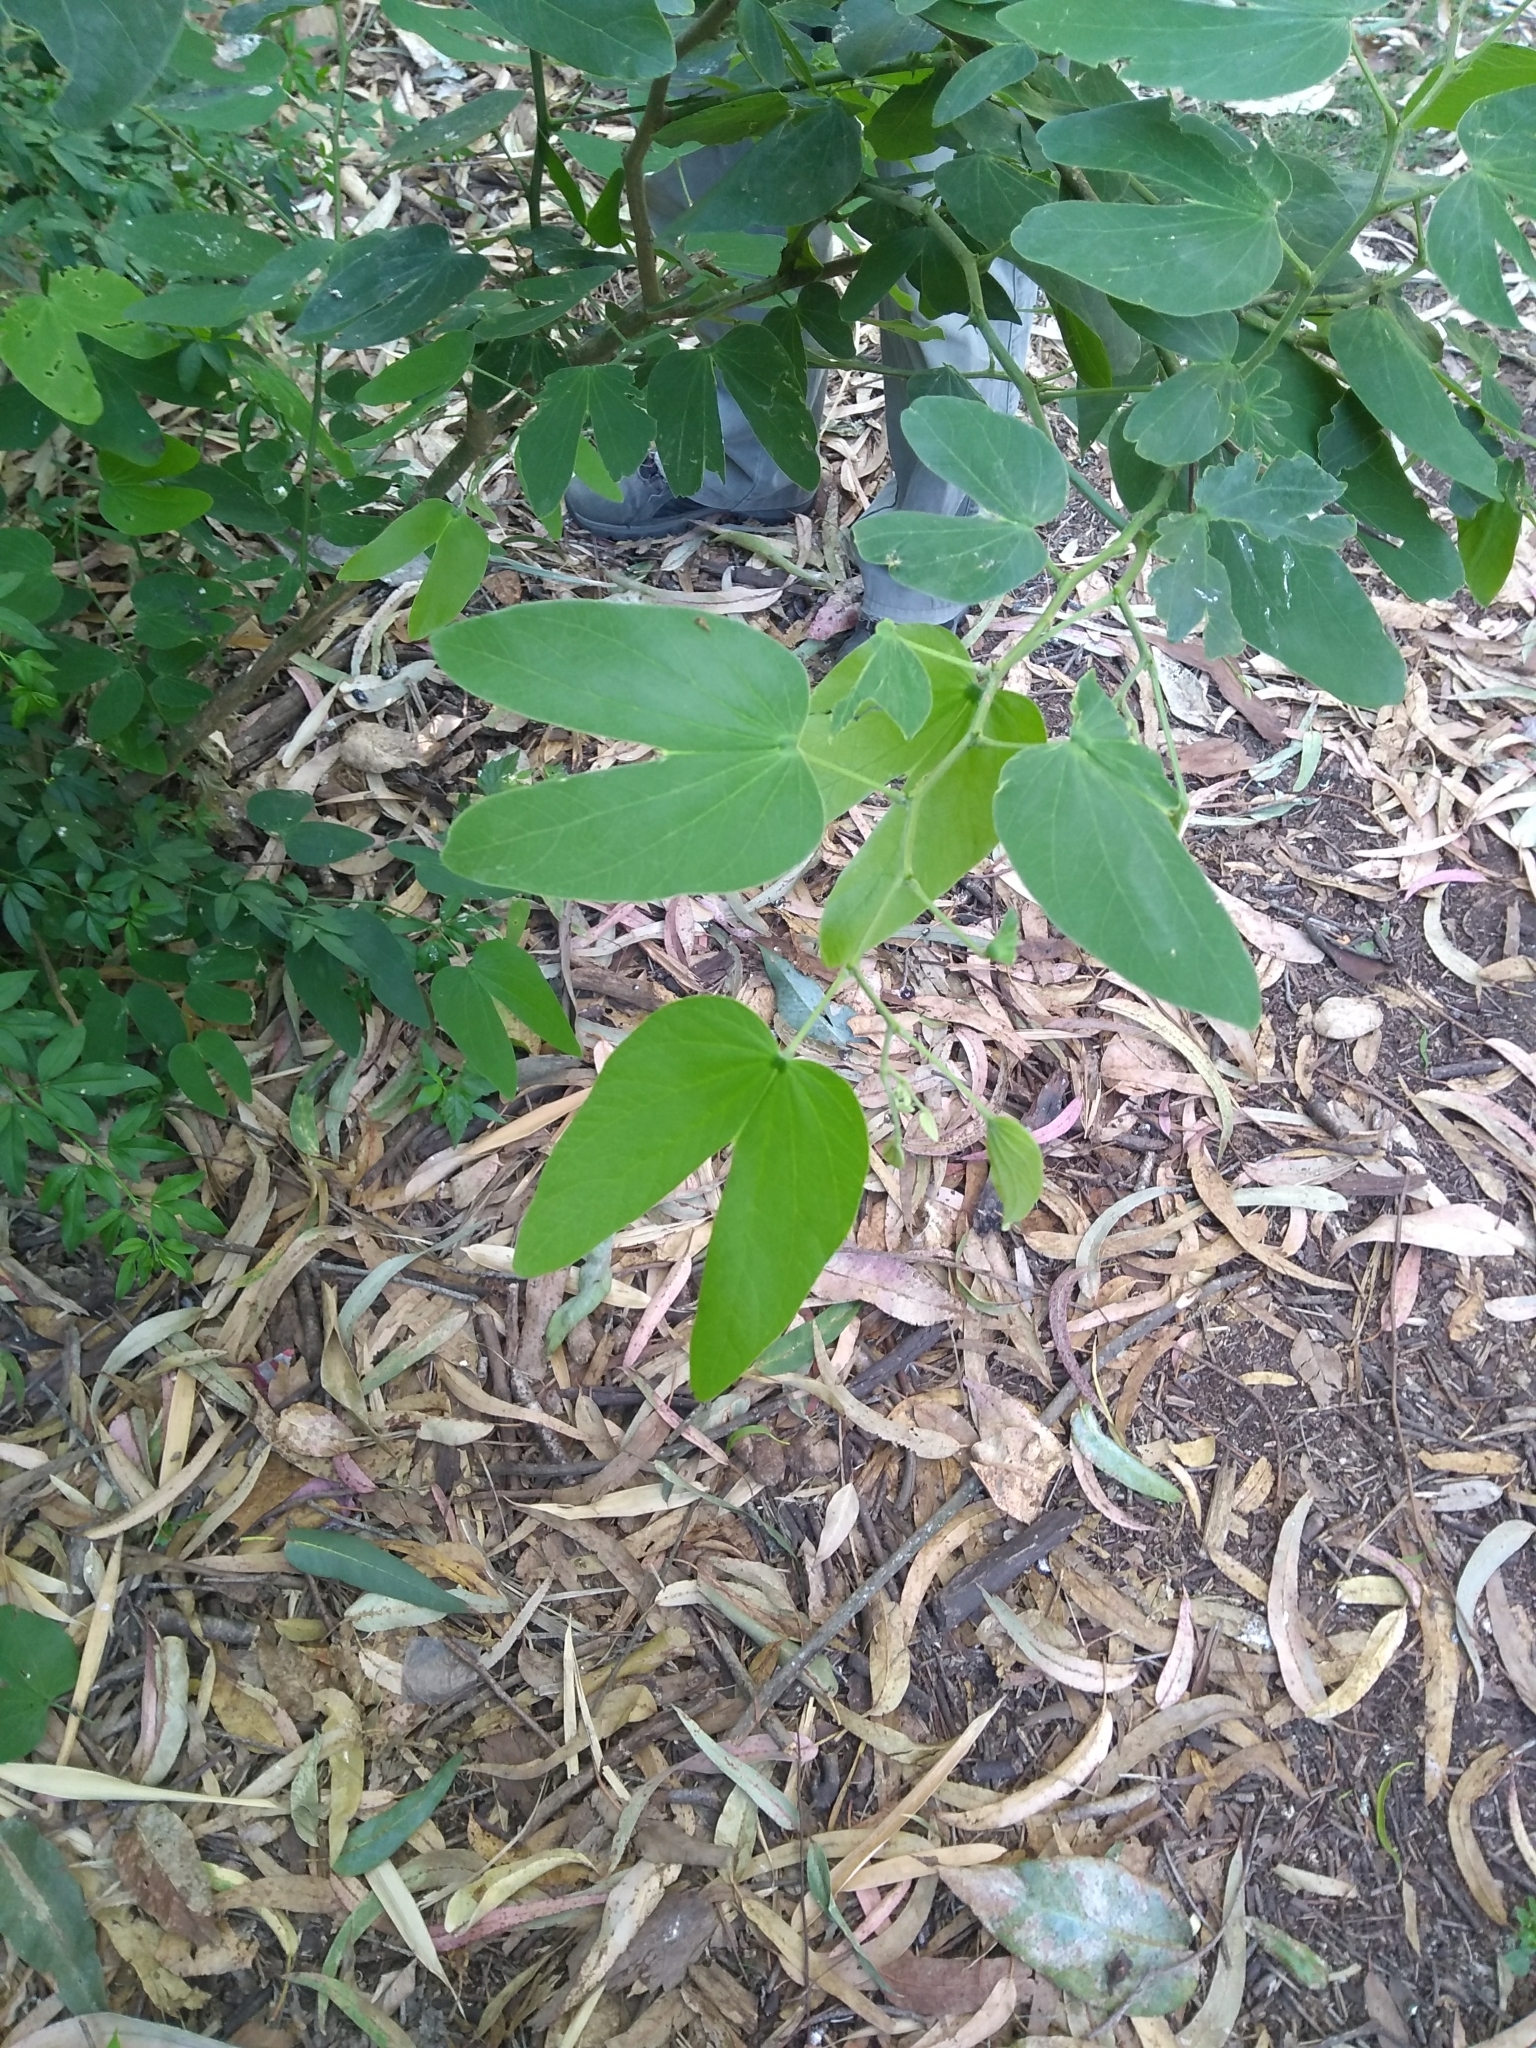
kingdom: Plantae
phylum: Tracheophyta
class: Magnoliopsida
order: Fabales
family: Fabaceae
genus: Bauhinia
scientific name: Bauhinia forficata
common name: Orchid tree
